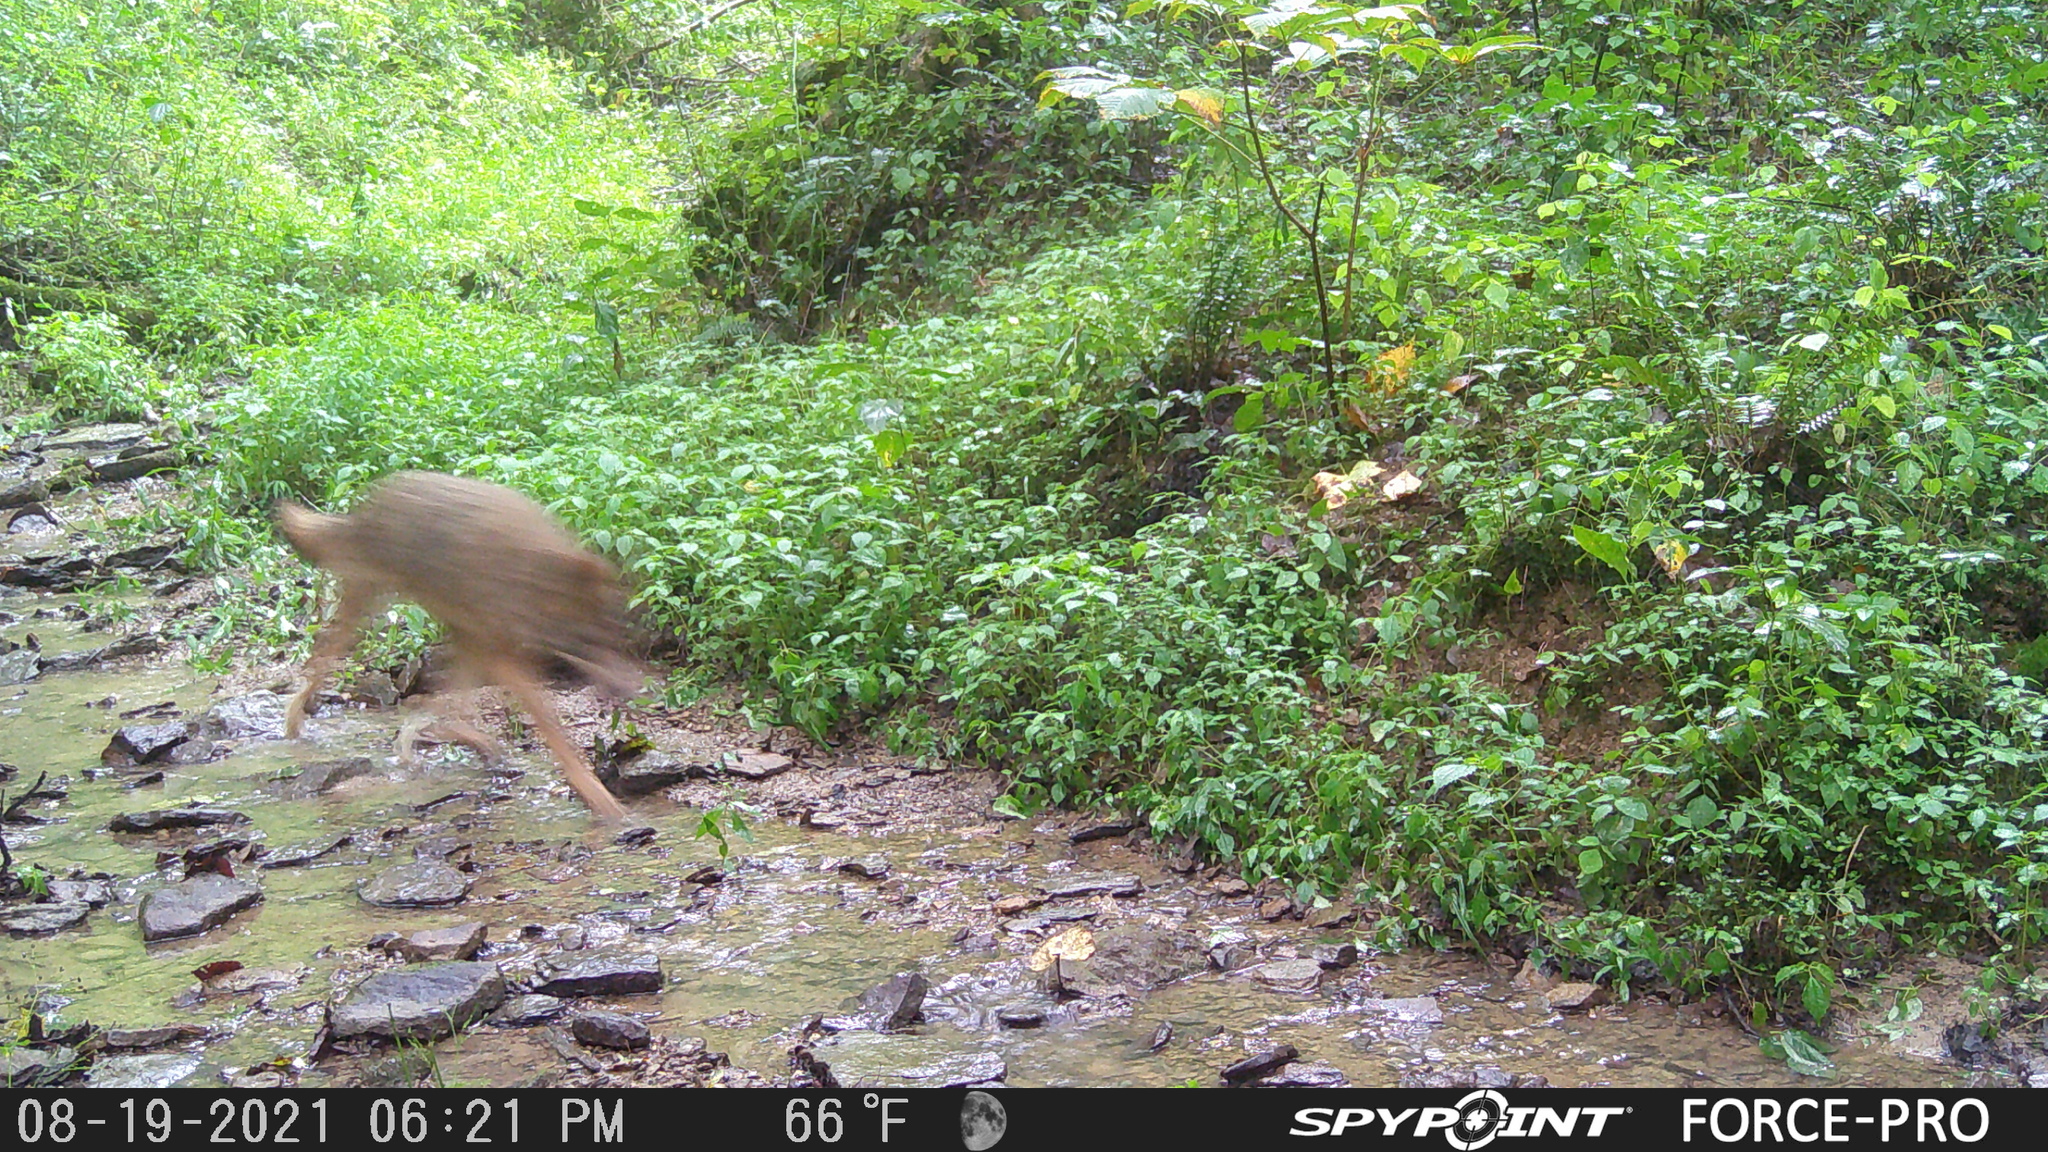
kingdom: Animalia
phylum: Chordata
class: Mammalia
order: Carnivora
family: Canidae
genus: Canis
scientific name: Canis latrans
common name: Coyote
